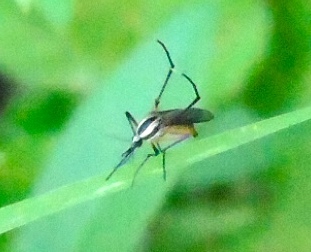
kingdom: Animalia
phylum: Arthropoda
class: Insecta
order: Diptera
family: Culicidae
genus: Psorophora
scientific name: Psorophora longipalpus
